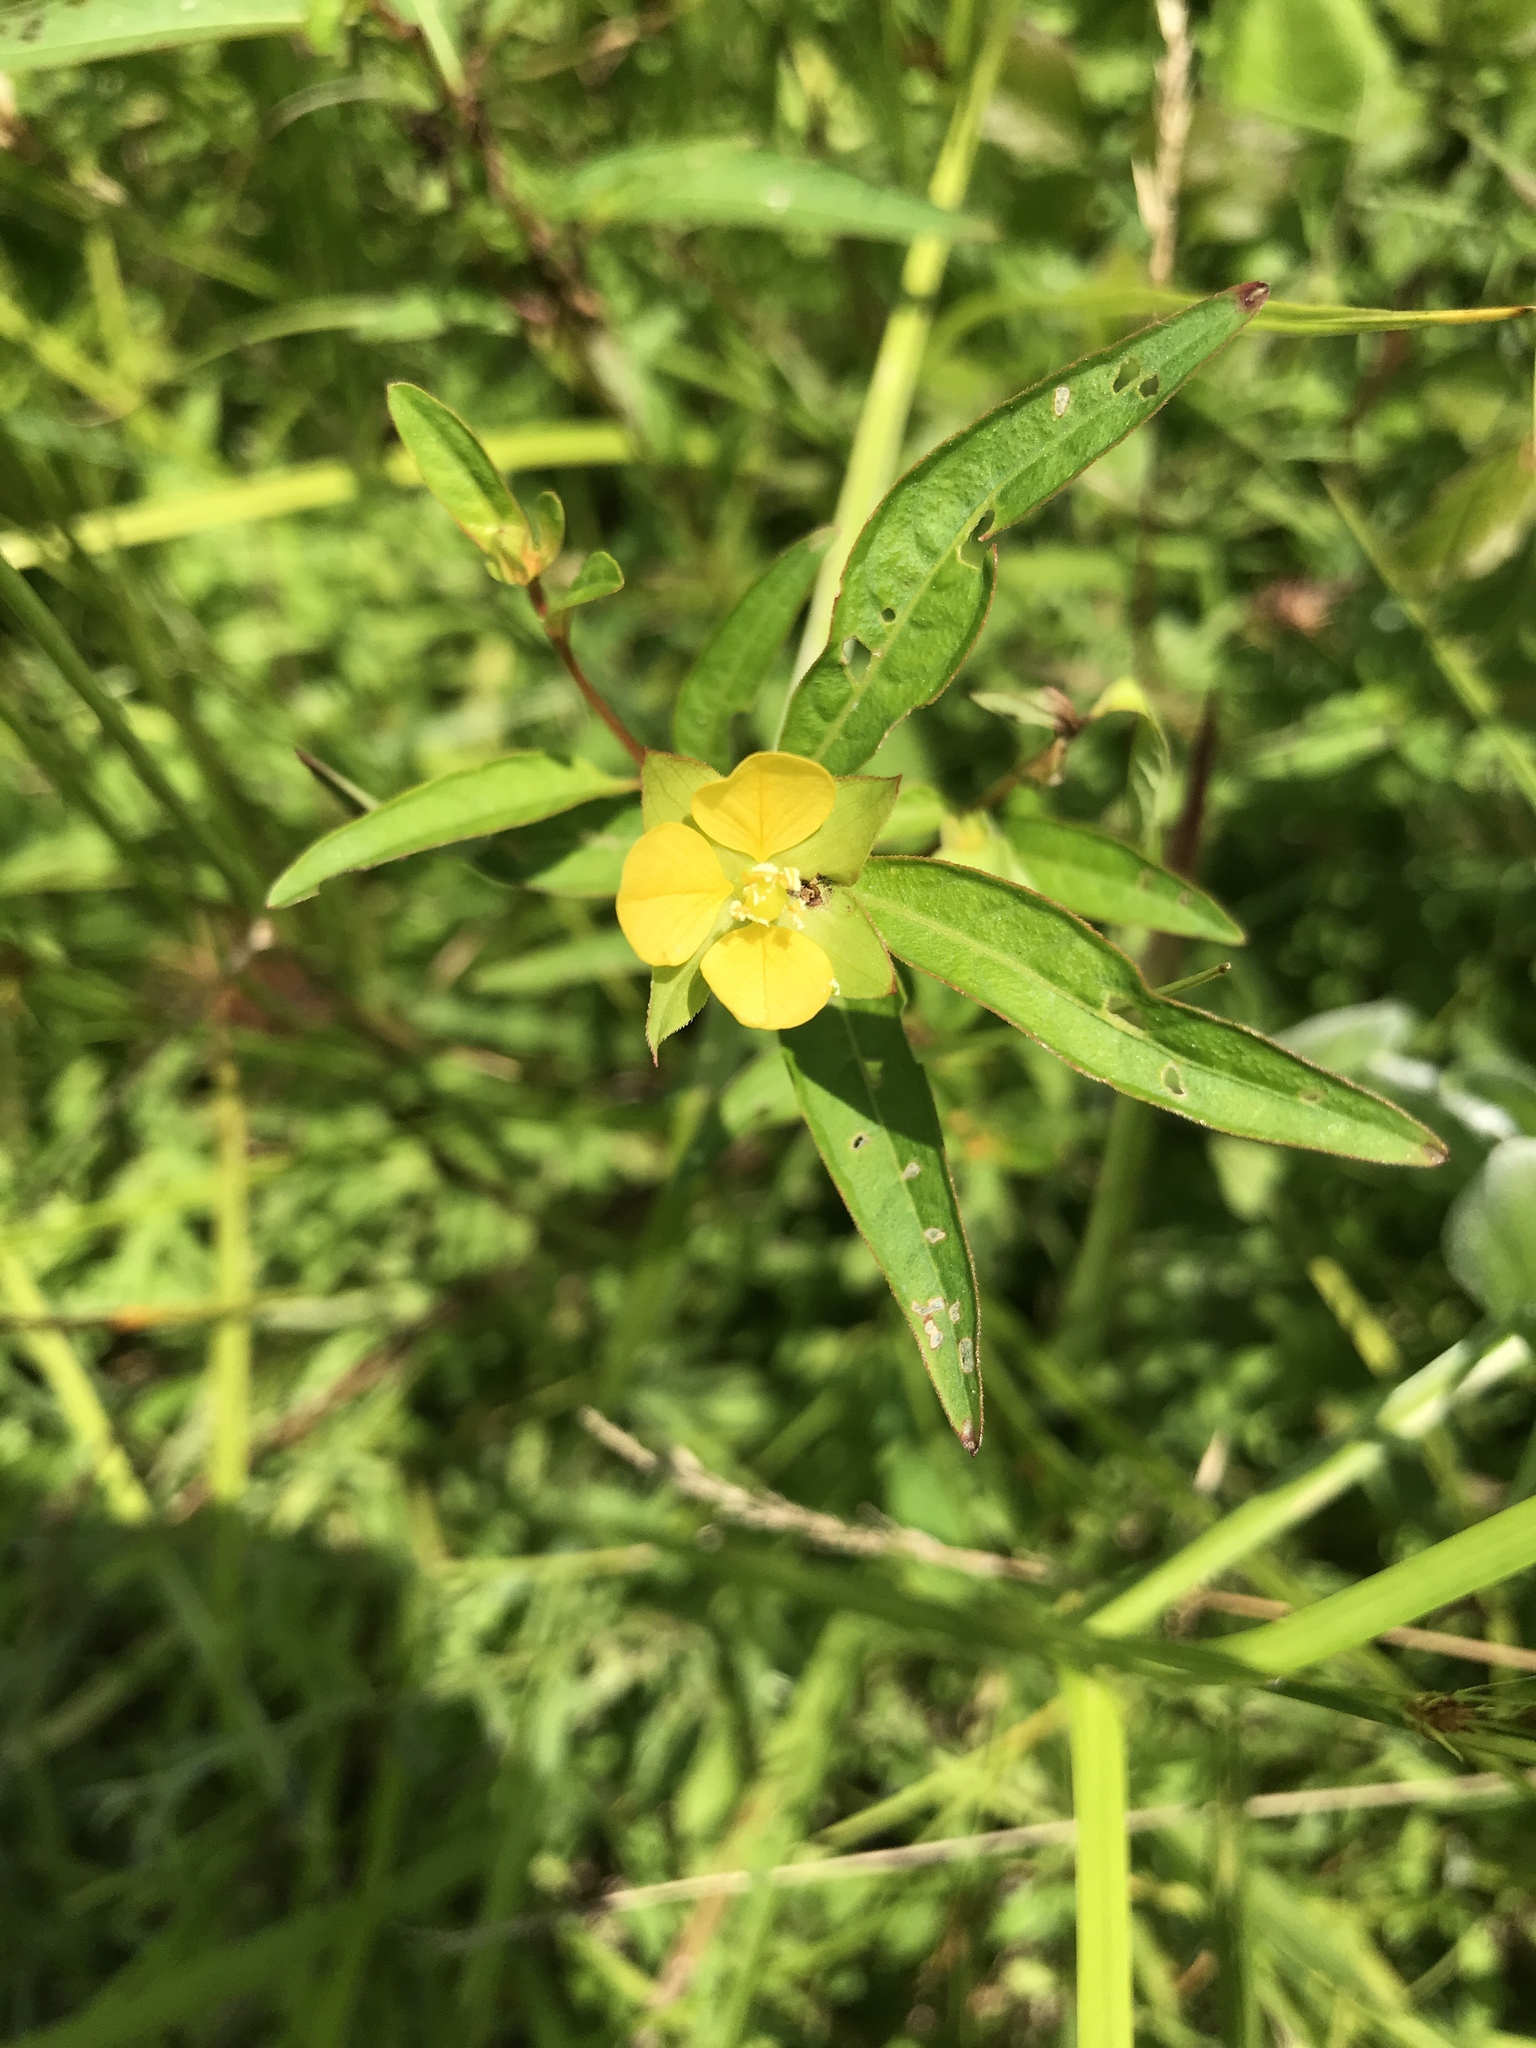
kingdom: Plantae
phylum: Tracheophyta
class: Magnoliopsida
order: Myrtales
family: Onagraceae
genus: Ludwigia
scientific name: Ludwigia alternifolia
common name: Rattlebox
